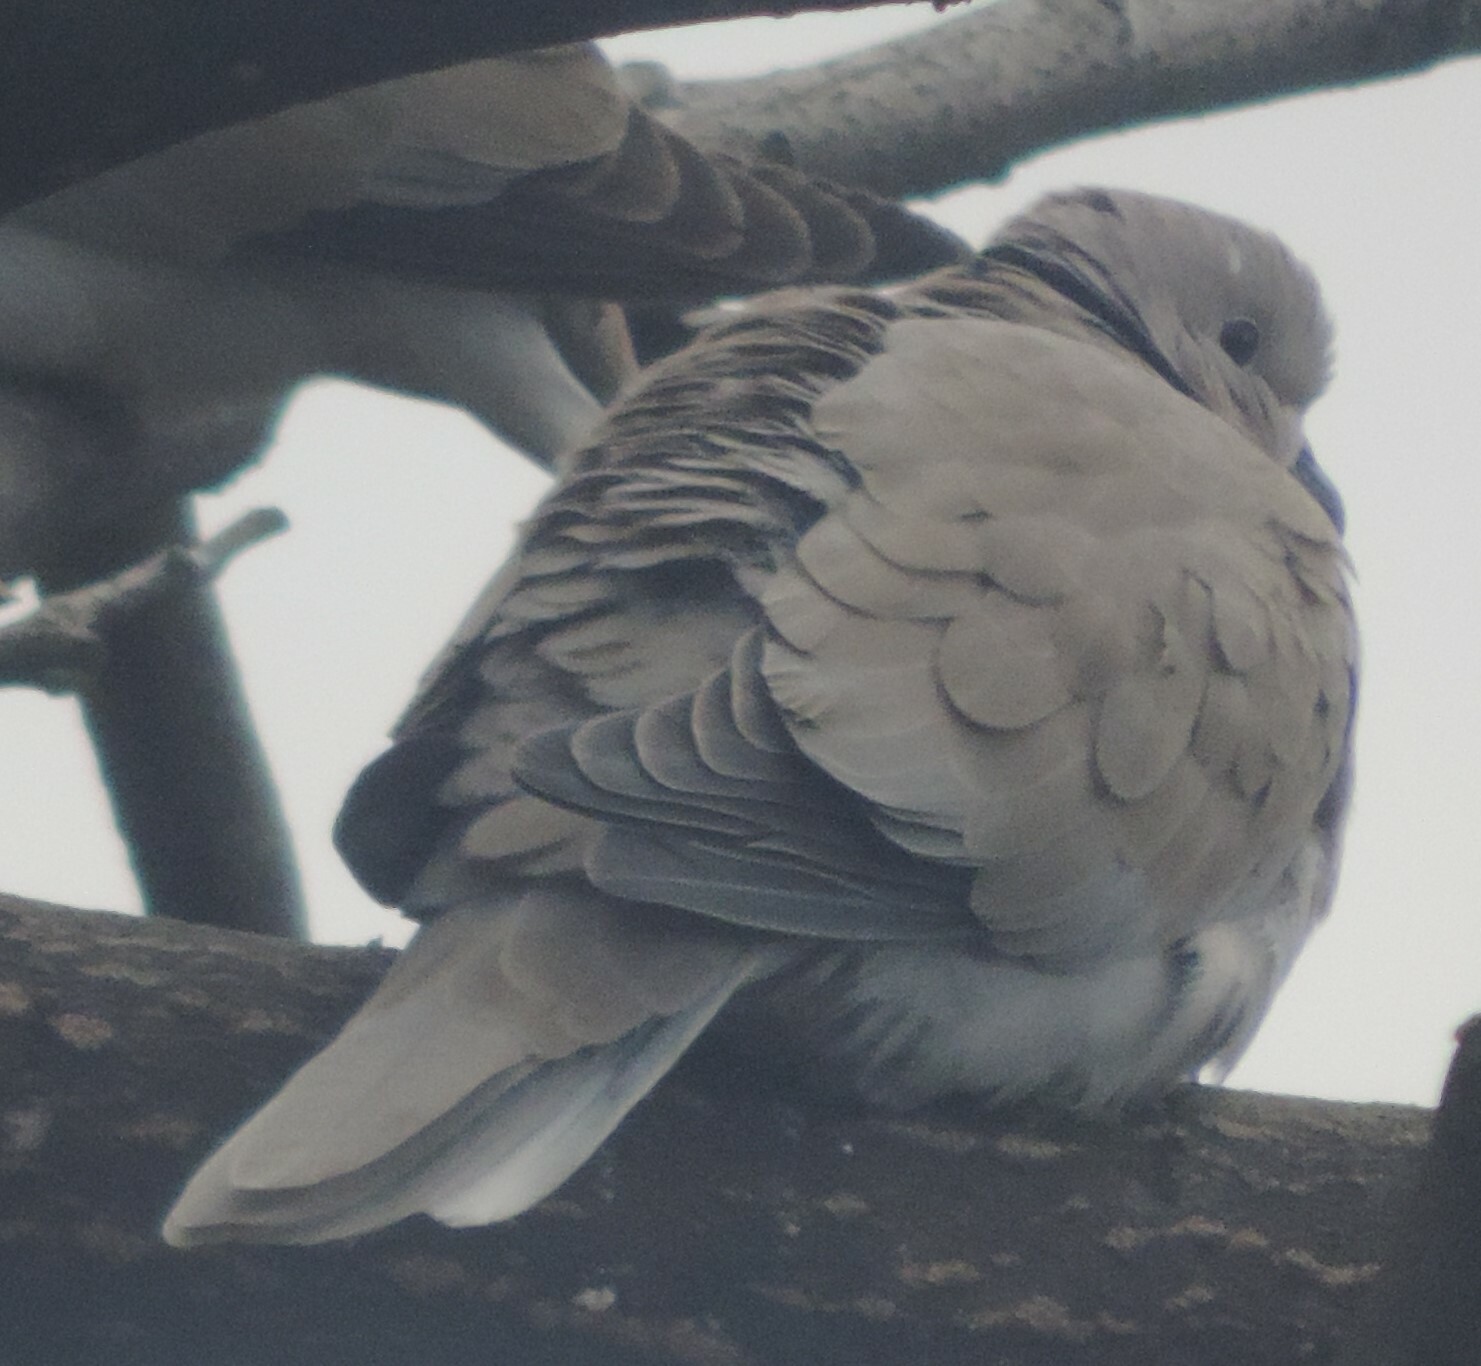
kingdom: Animalia
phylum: Chordata
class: Aves
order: Columbiformes
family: Columbidae
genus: Streptopelia
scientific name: Streptopelia decaocto
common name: Eurasian collared dove
